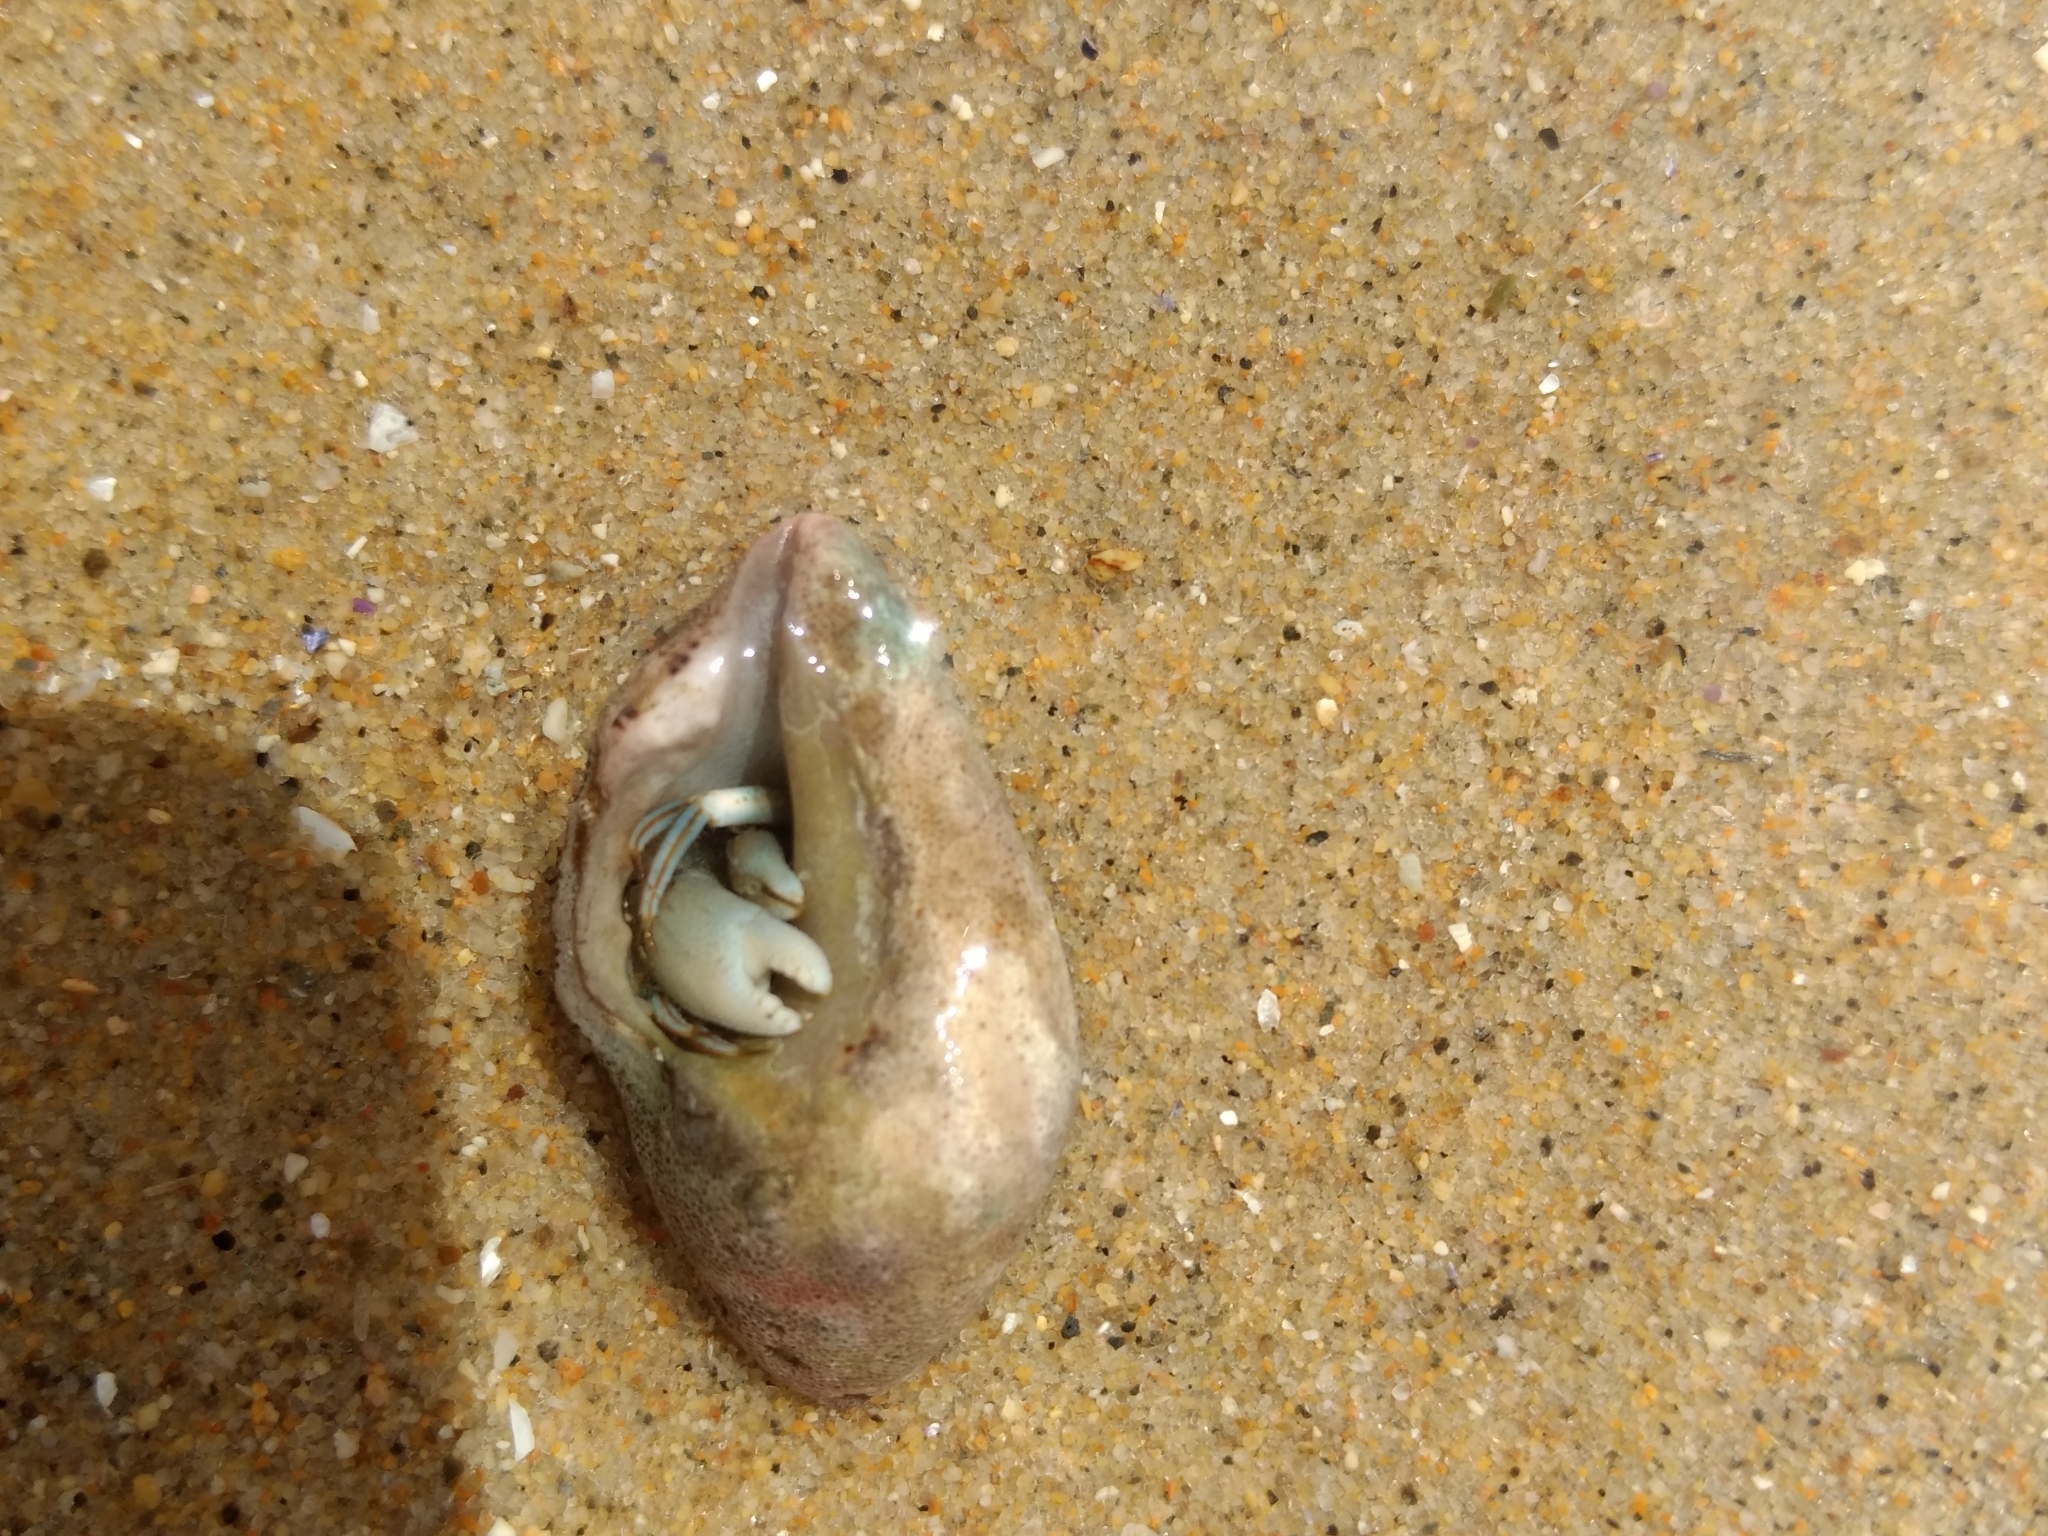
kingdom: Animalia
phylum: Arthropoda
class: Malacostraca
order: Decapoda
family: Paguridae
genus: Pagurus
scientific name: Pagurus venturensis
